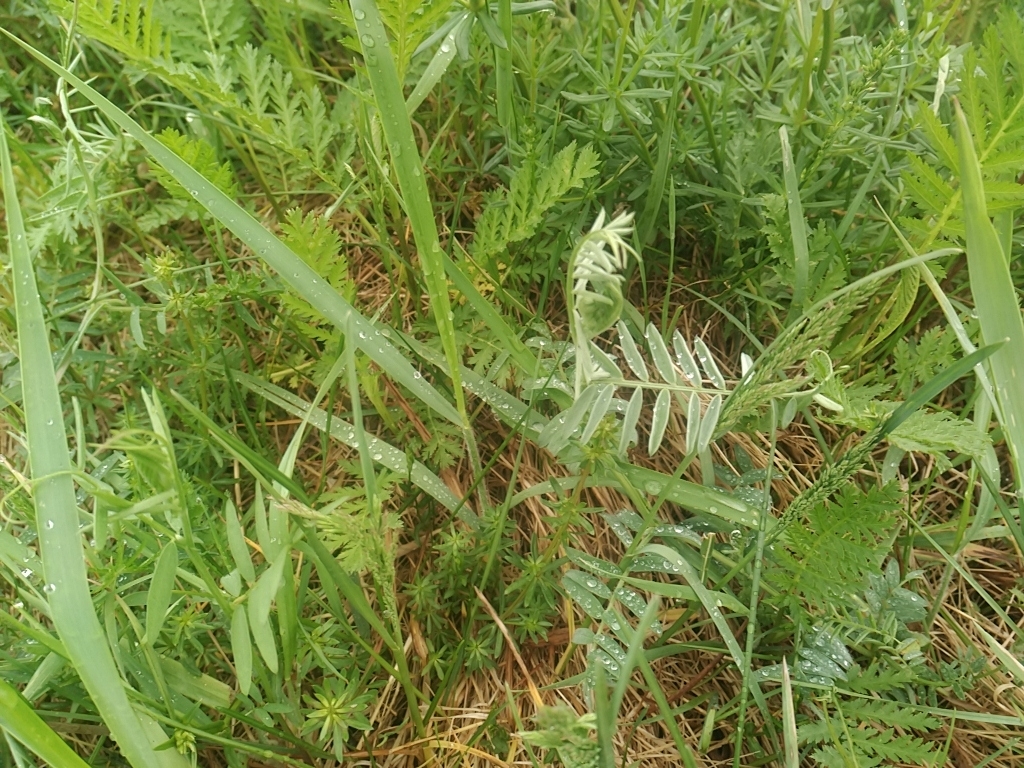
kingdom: Plantae
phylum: Tracheophyta
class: Magnoliopsida
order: Fabales
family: Fabaceae
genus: Vicia
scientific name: Vicia cracca
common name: Bird vetch
